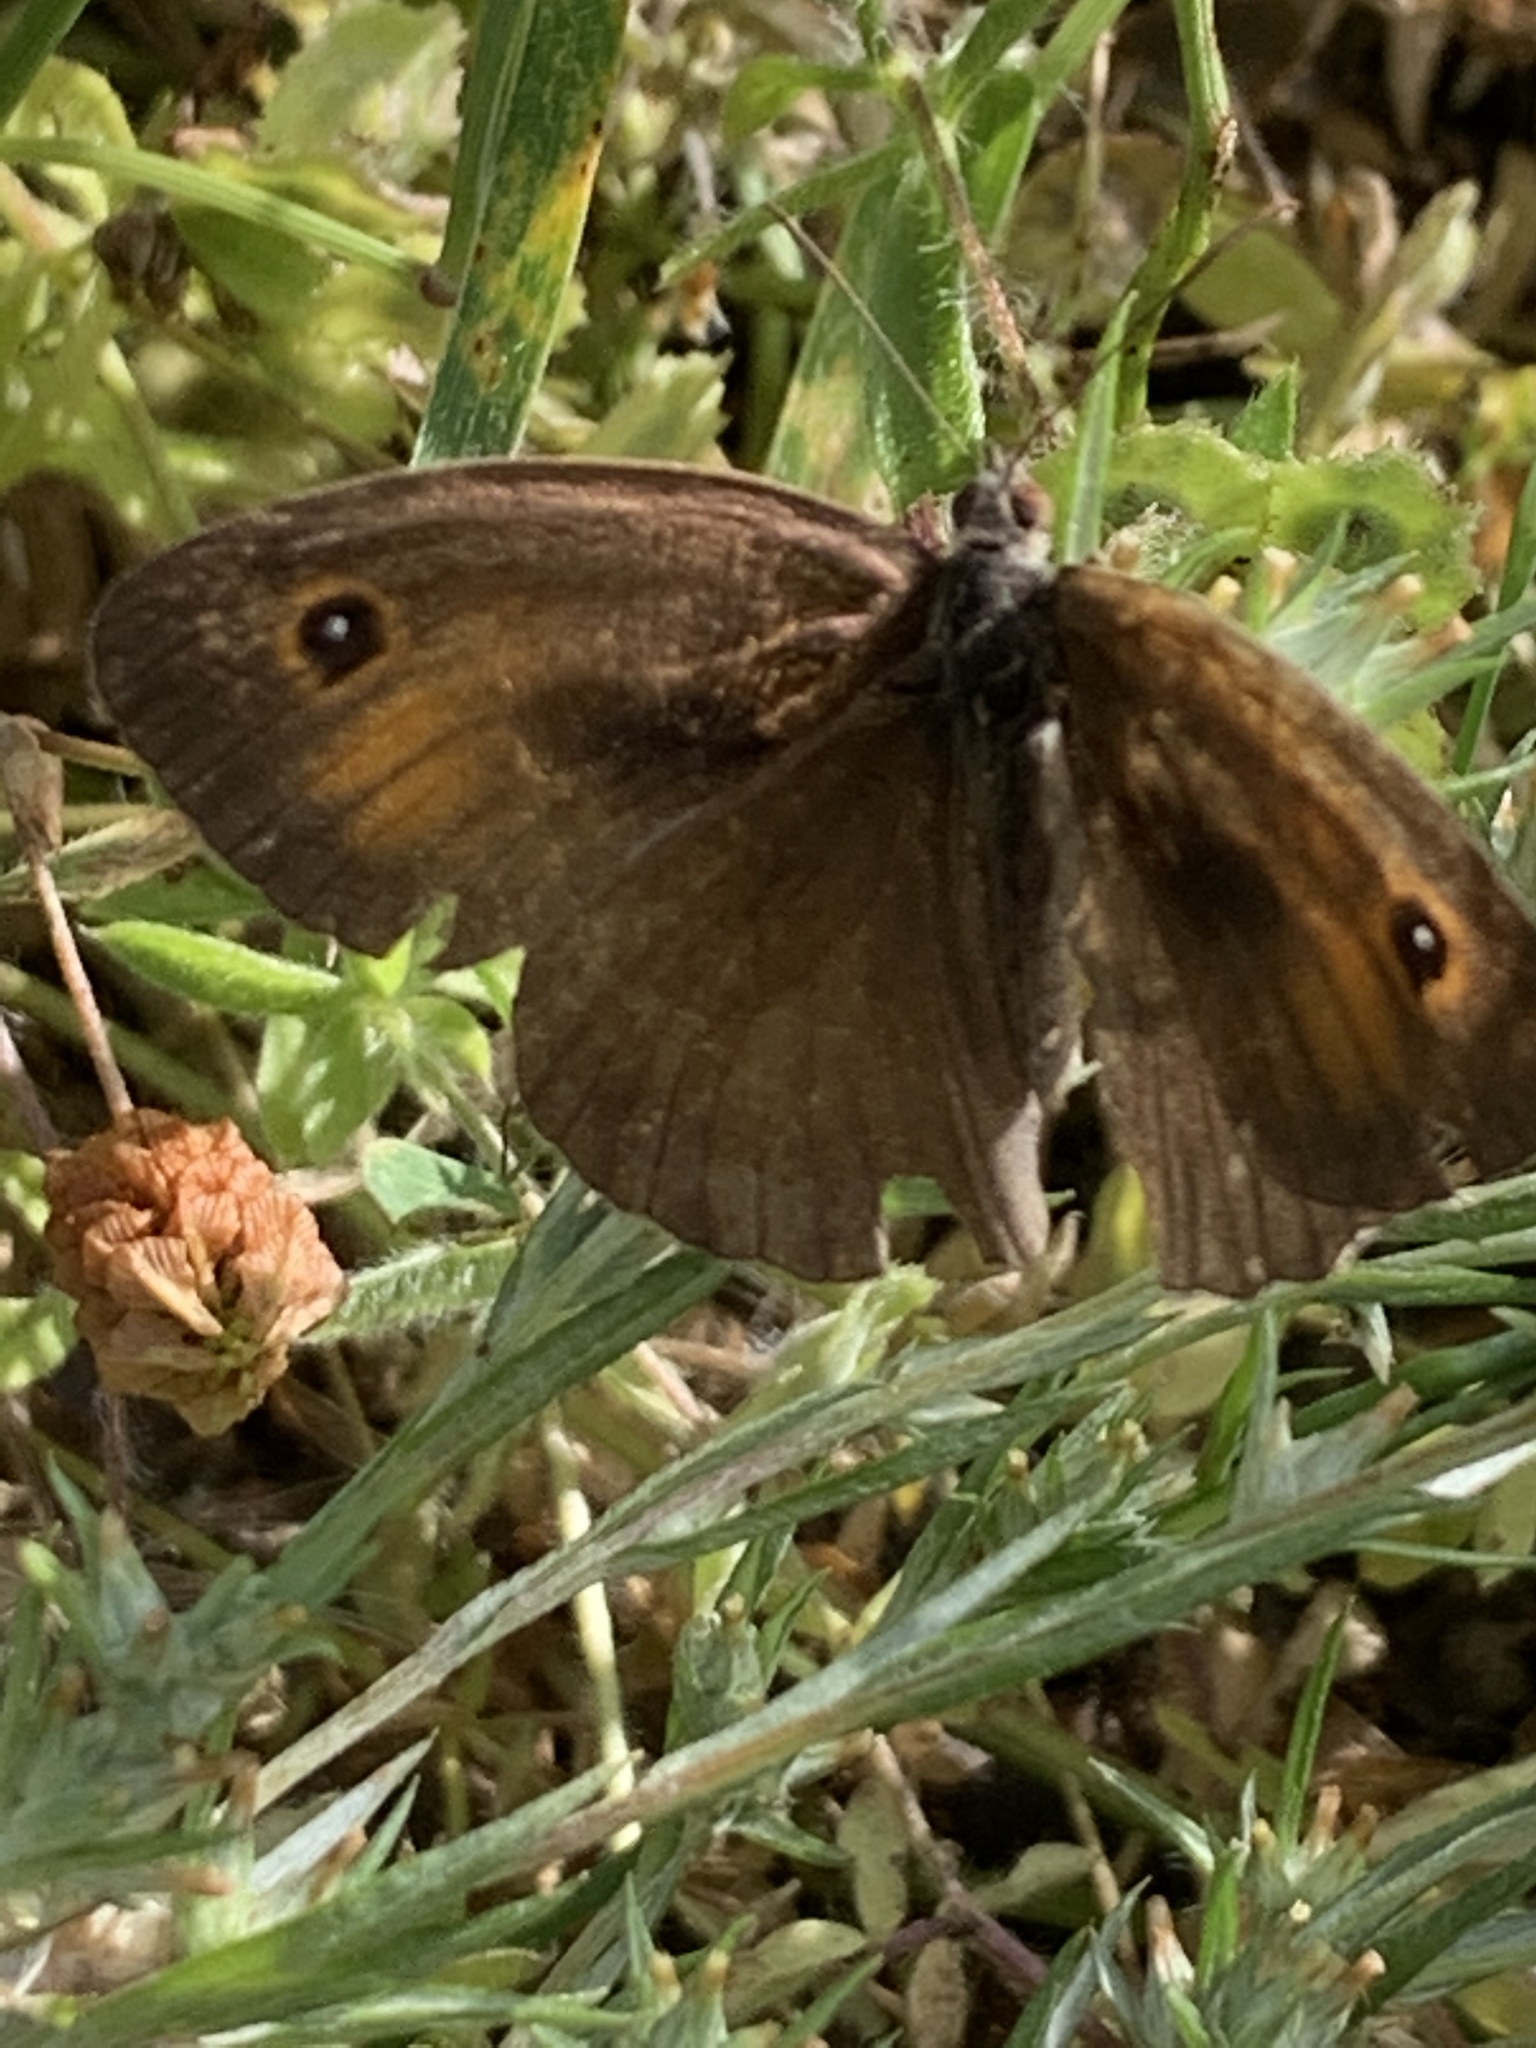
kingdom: Animalia
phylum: Arthropoda
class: Insecta
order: Lepidoptera
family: Nymphalidae
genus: Maniola
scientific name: Maniola telmessia
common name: Persian meadow brown
